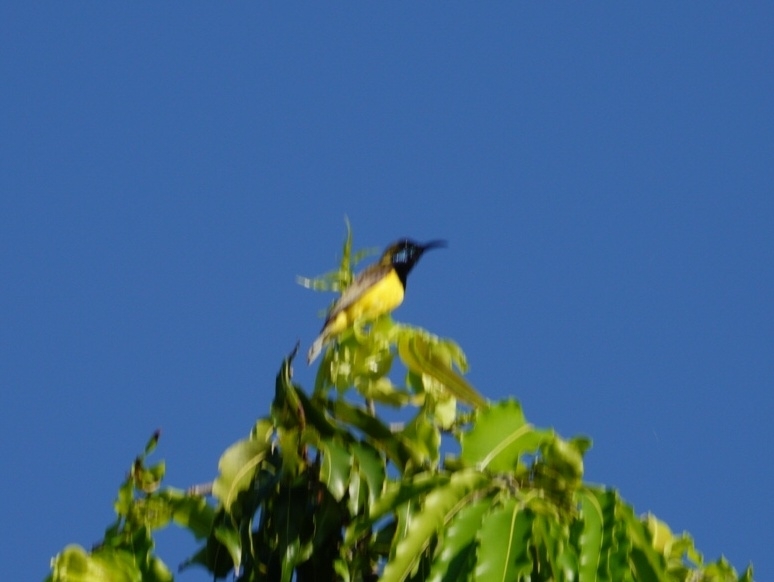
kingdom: Animalia
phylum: Chordata
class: Aves
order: Passeriformes
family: Nectariniidae
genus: Cinnyris
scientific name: Cinnyris
